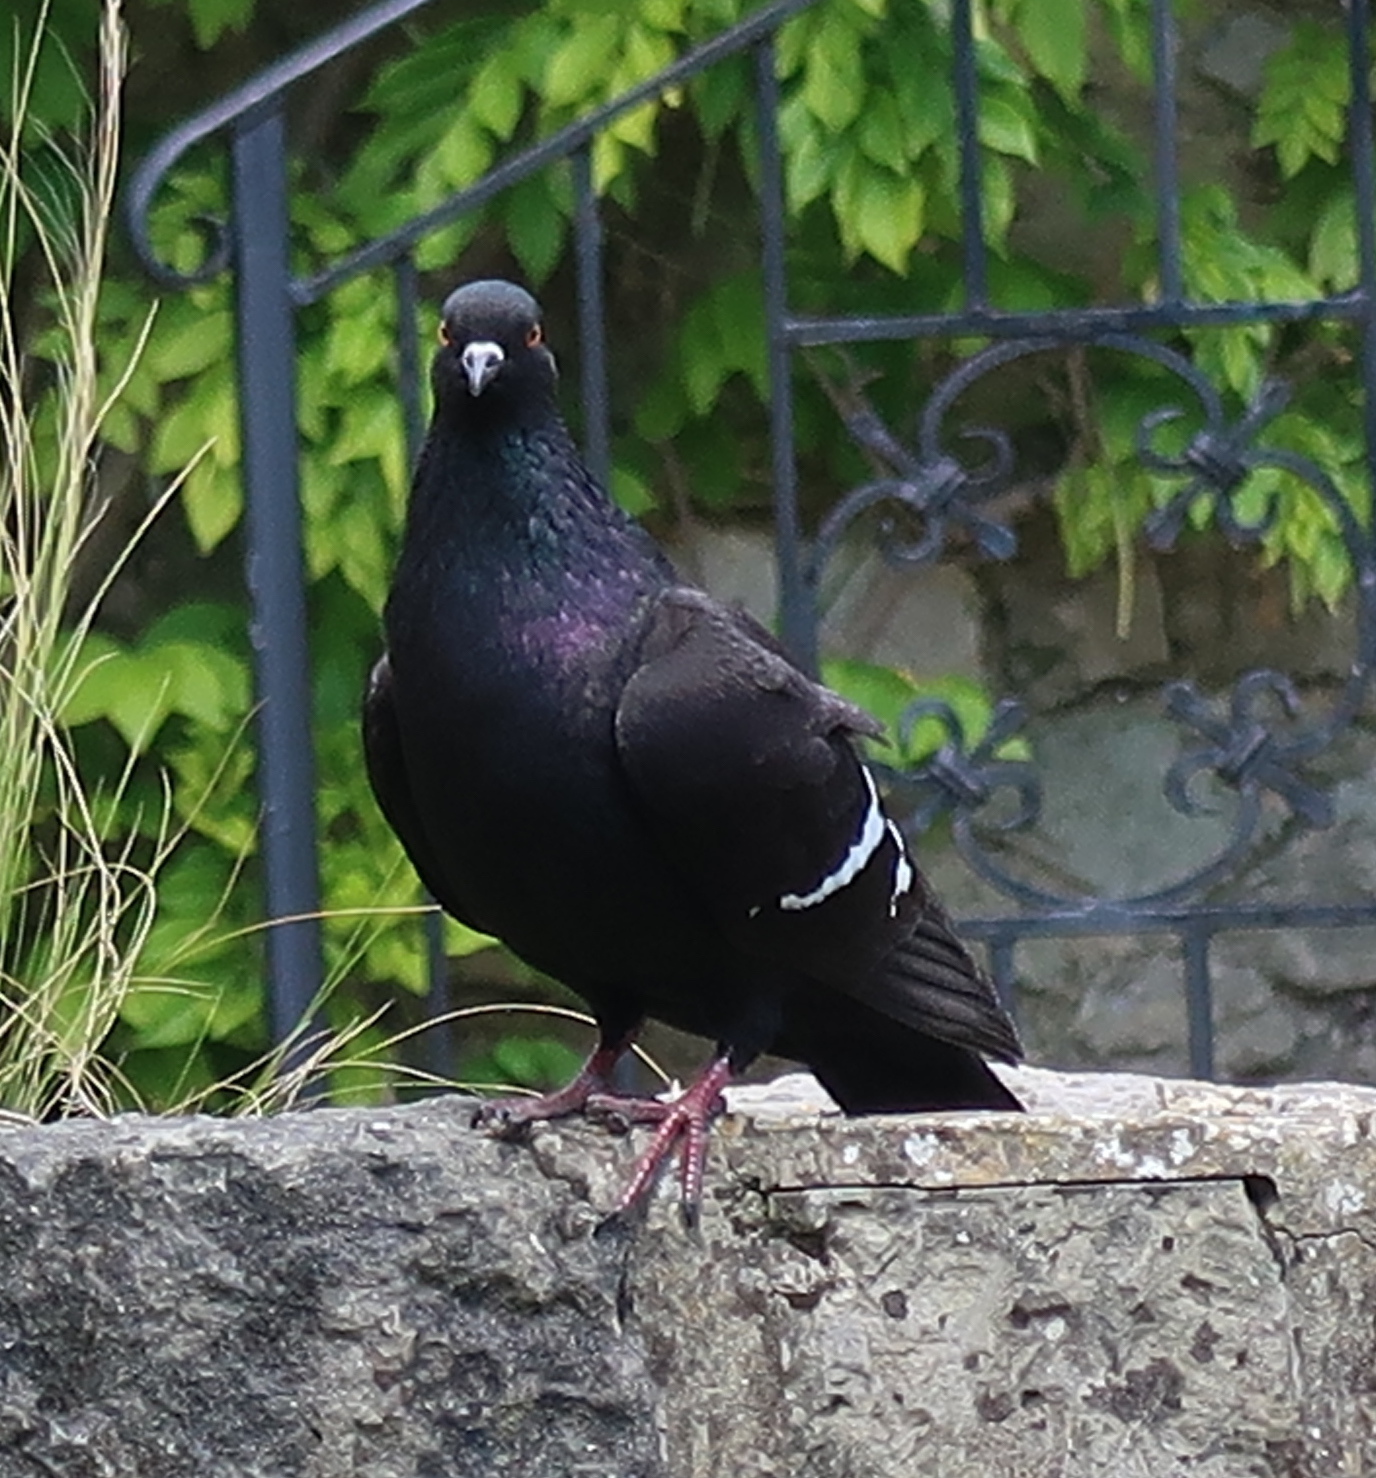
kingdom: Animalia
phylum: Chordata
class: Aves
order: Columbiformes
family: Columbidae
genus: Columba
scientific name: Columba livia
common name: Rock pigeon
